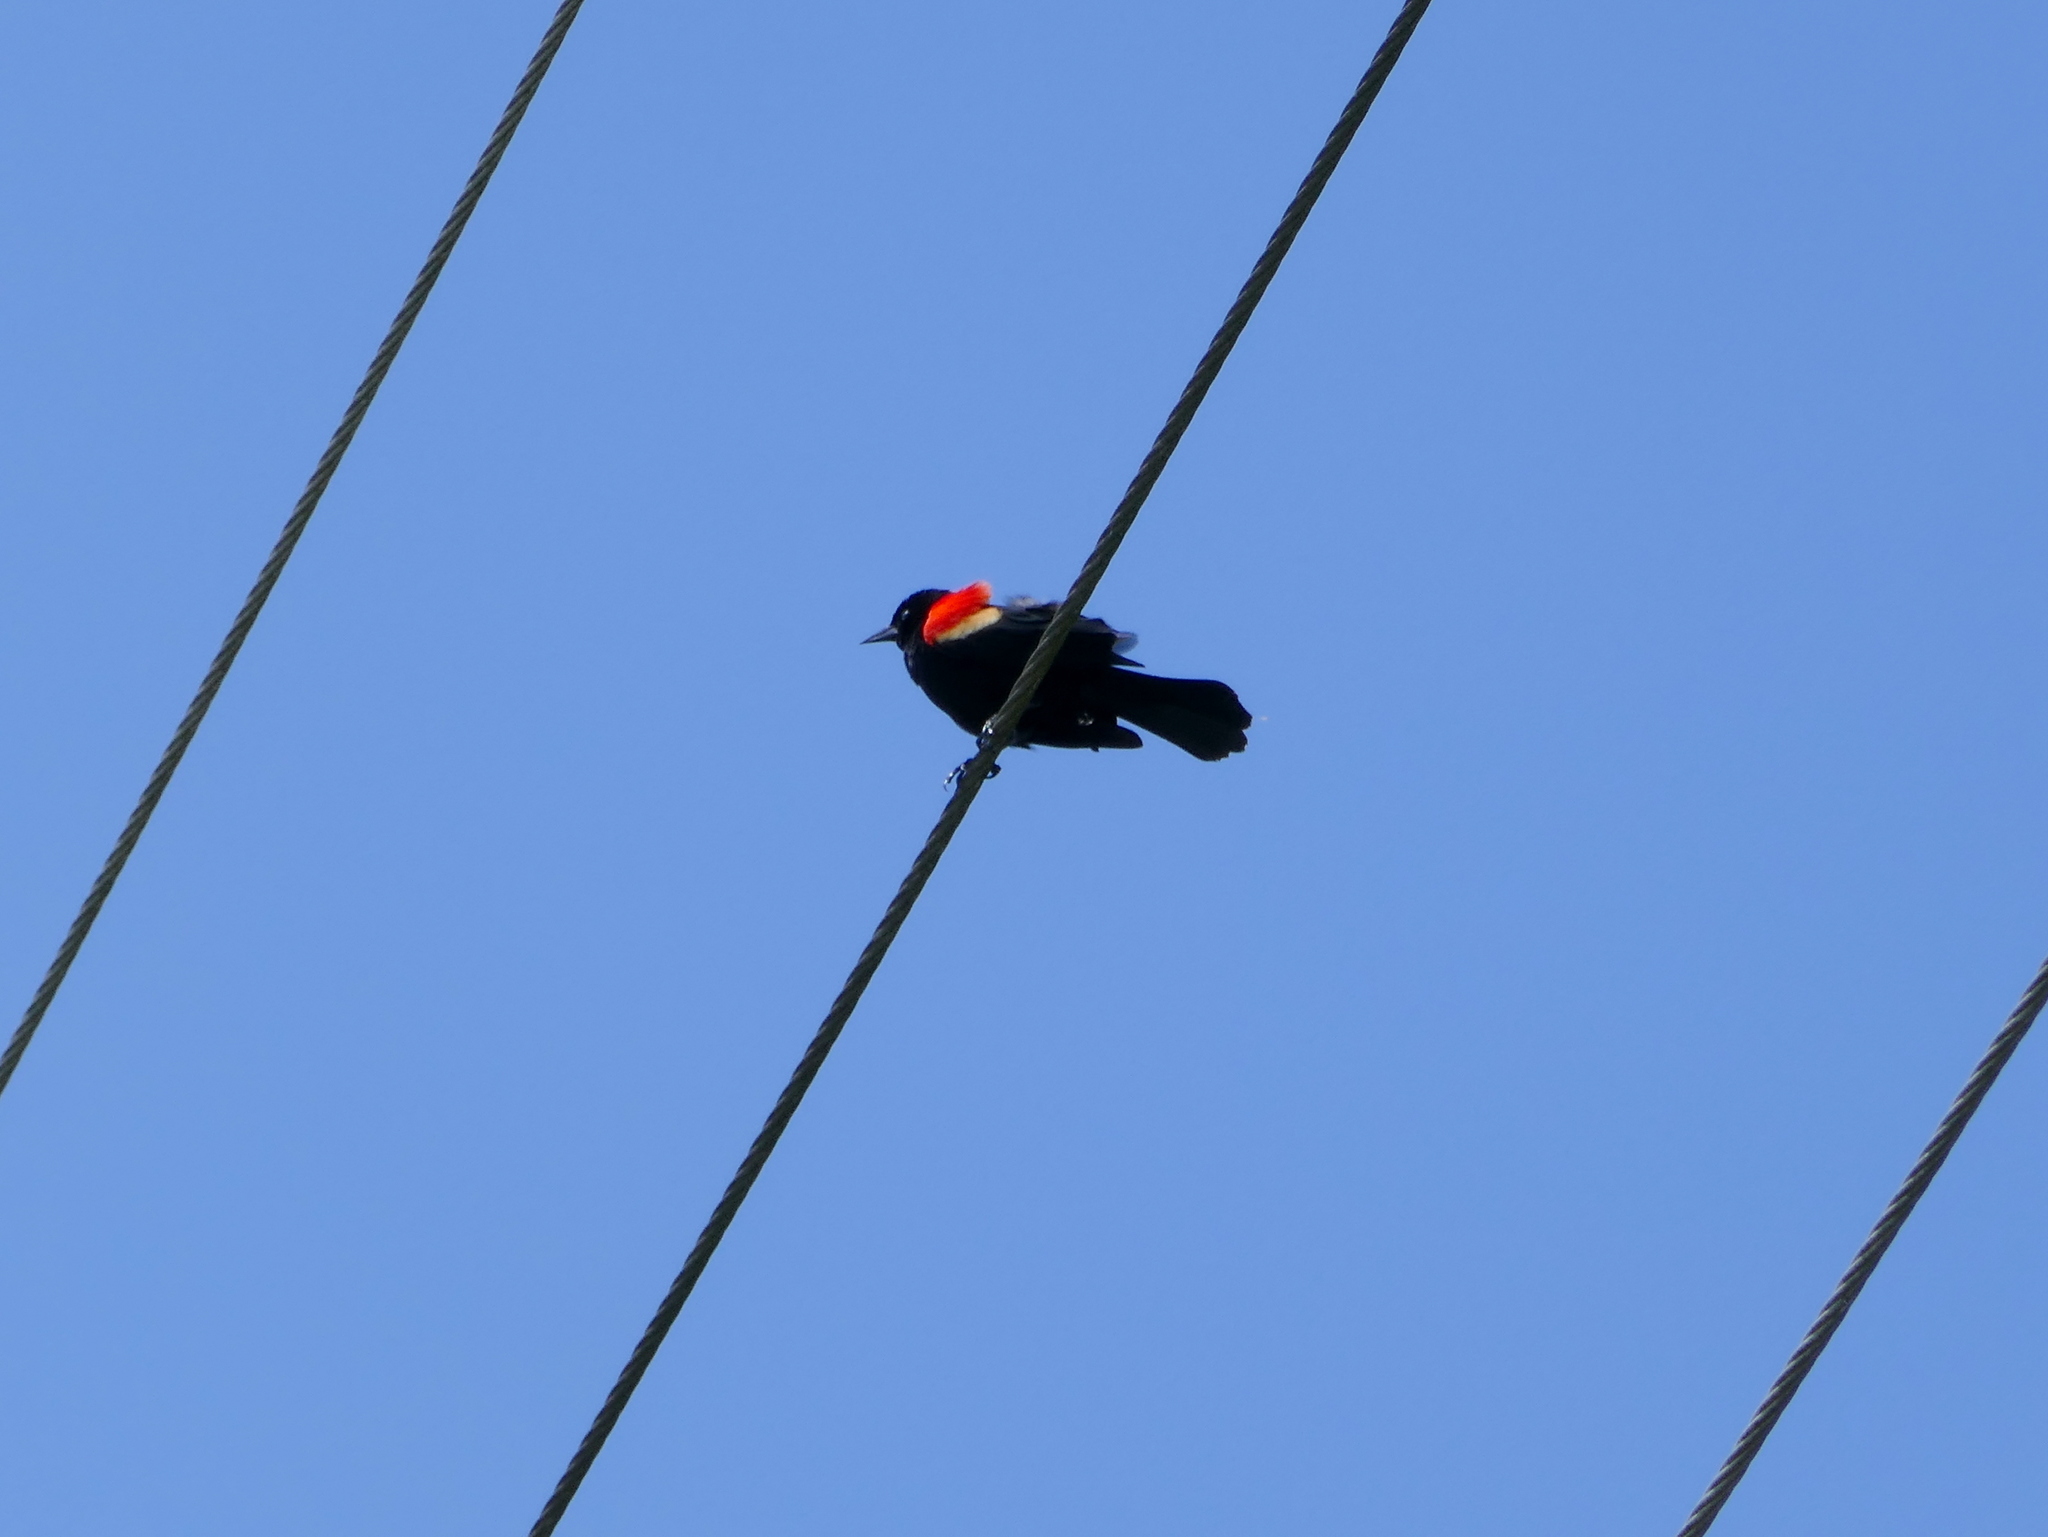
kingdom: Animalia
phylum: Chordata
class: Aves
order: Passeriformes
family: Icteridae
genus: Agelaius
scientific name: Agelaius phoeniceus
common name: Red-winged blackbird
